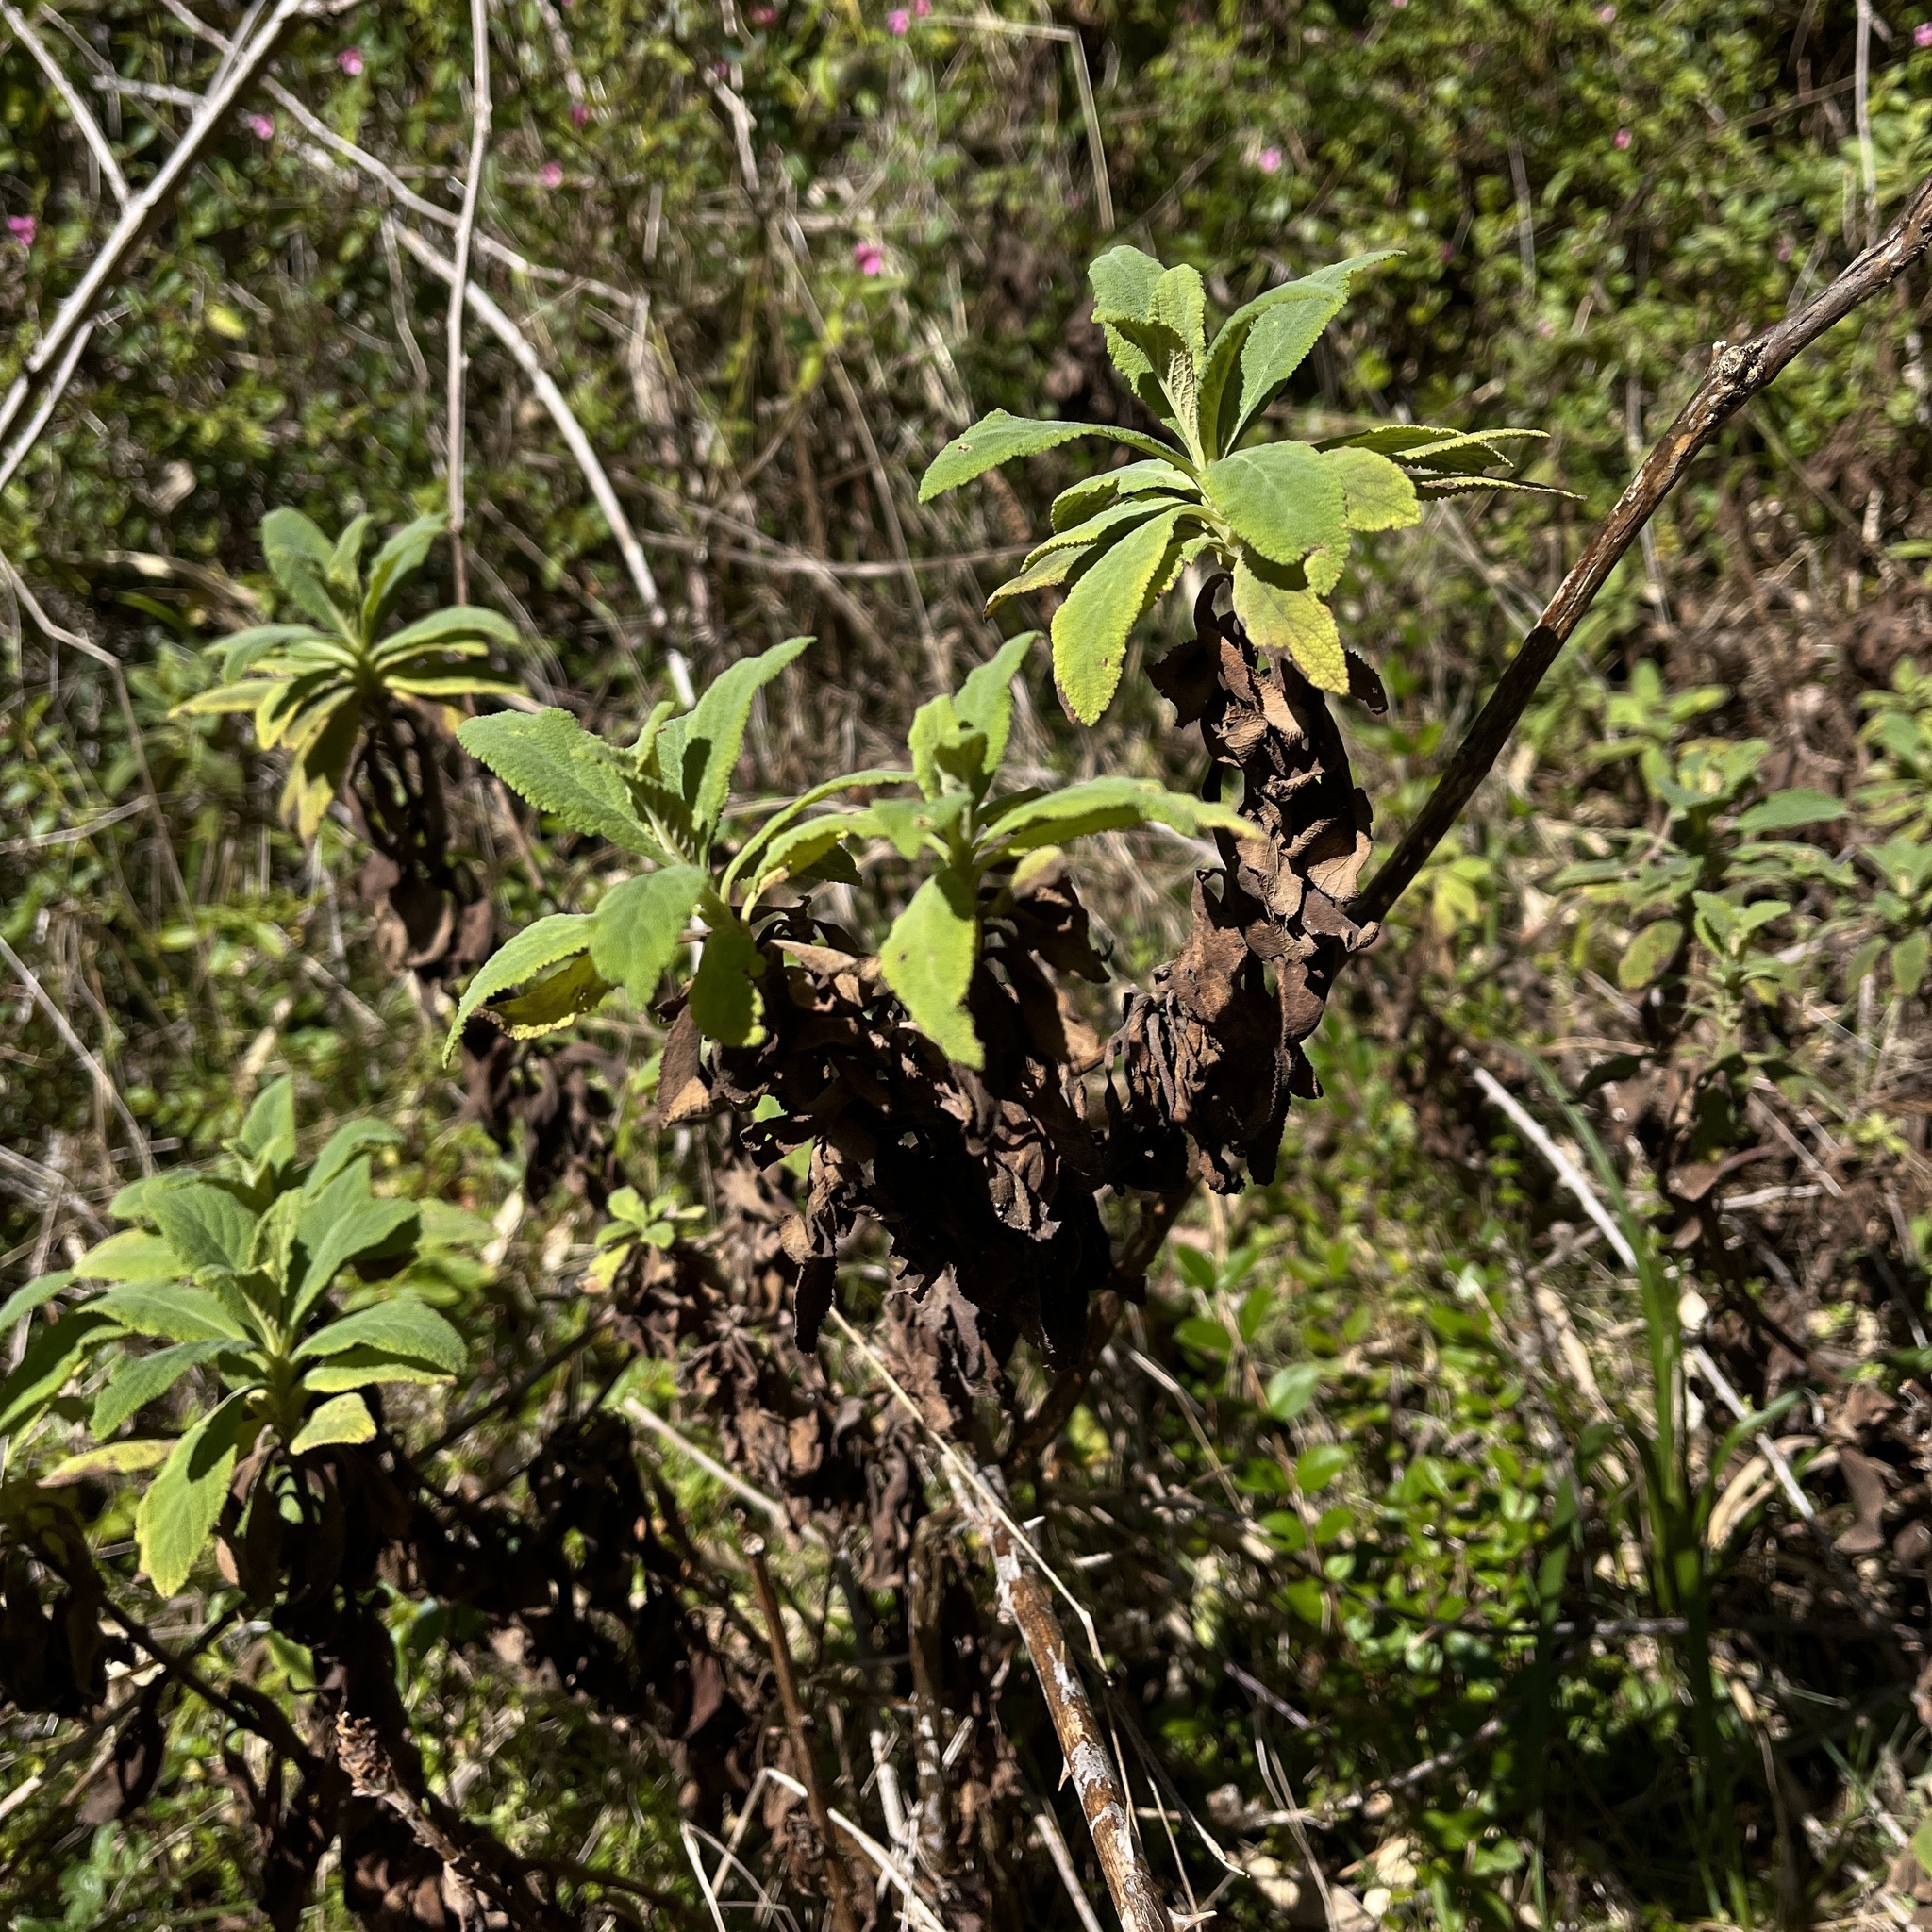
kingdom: Plantae
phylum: Tracheophyta
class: Magnoliopsida
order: Asterales
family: Asteraceae
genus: Acrisione
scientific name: Acrisione denticulata
